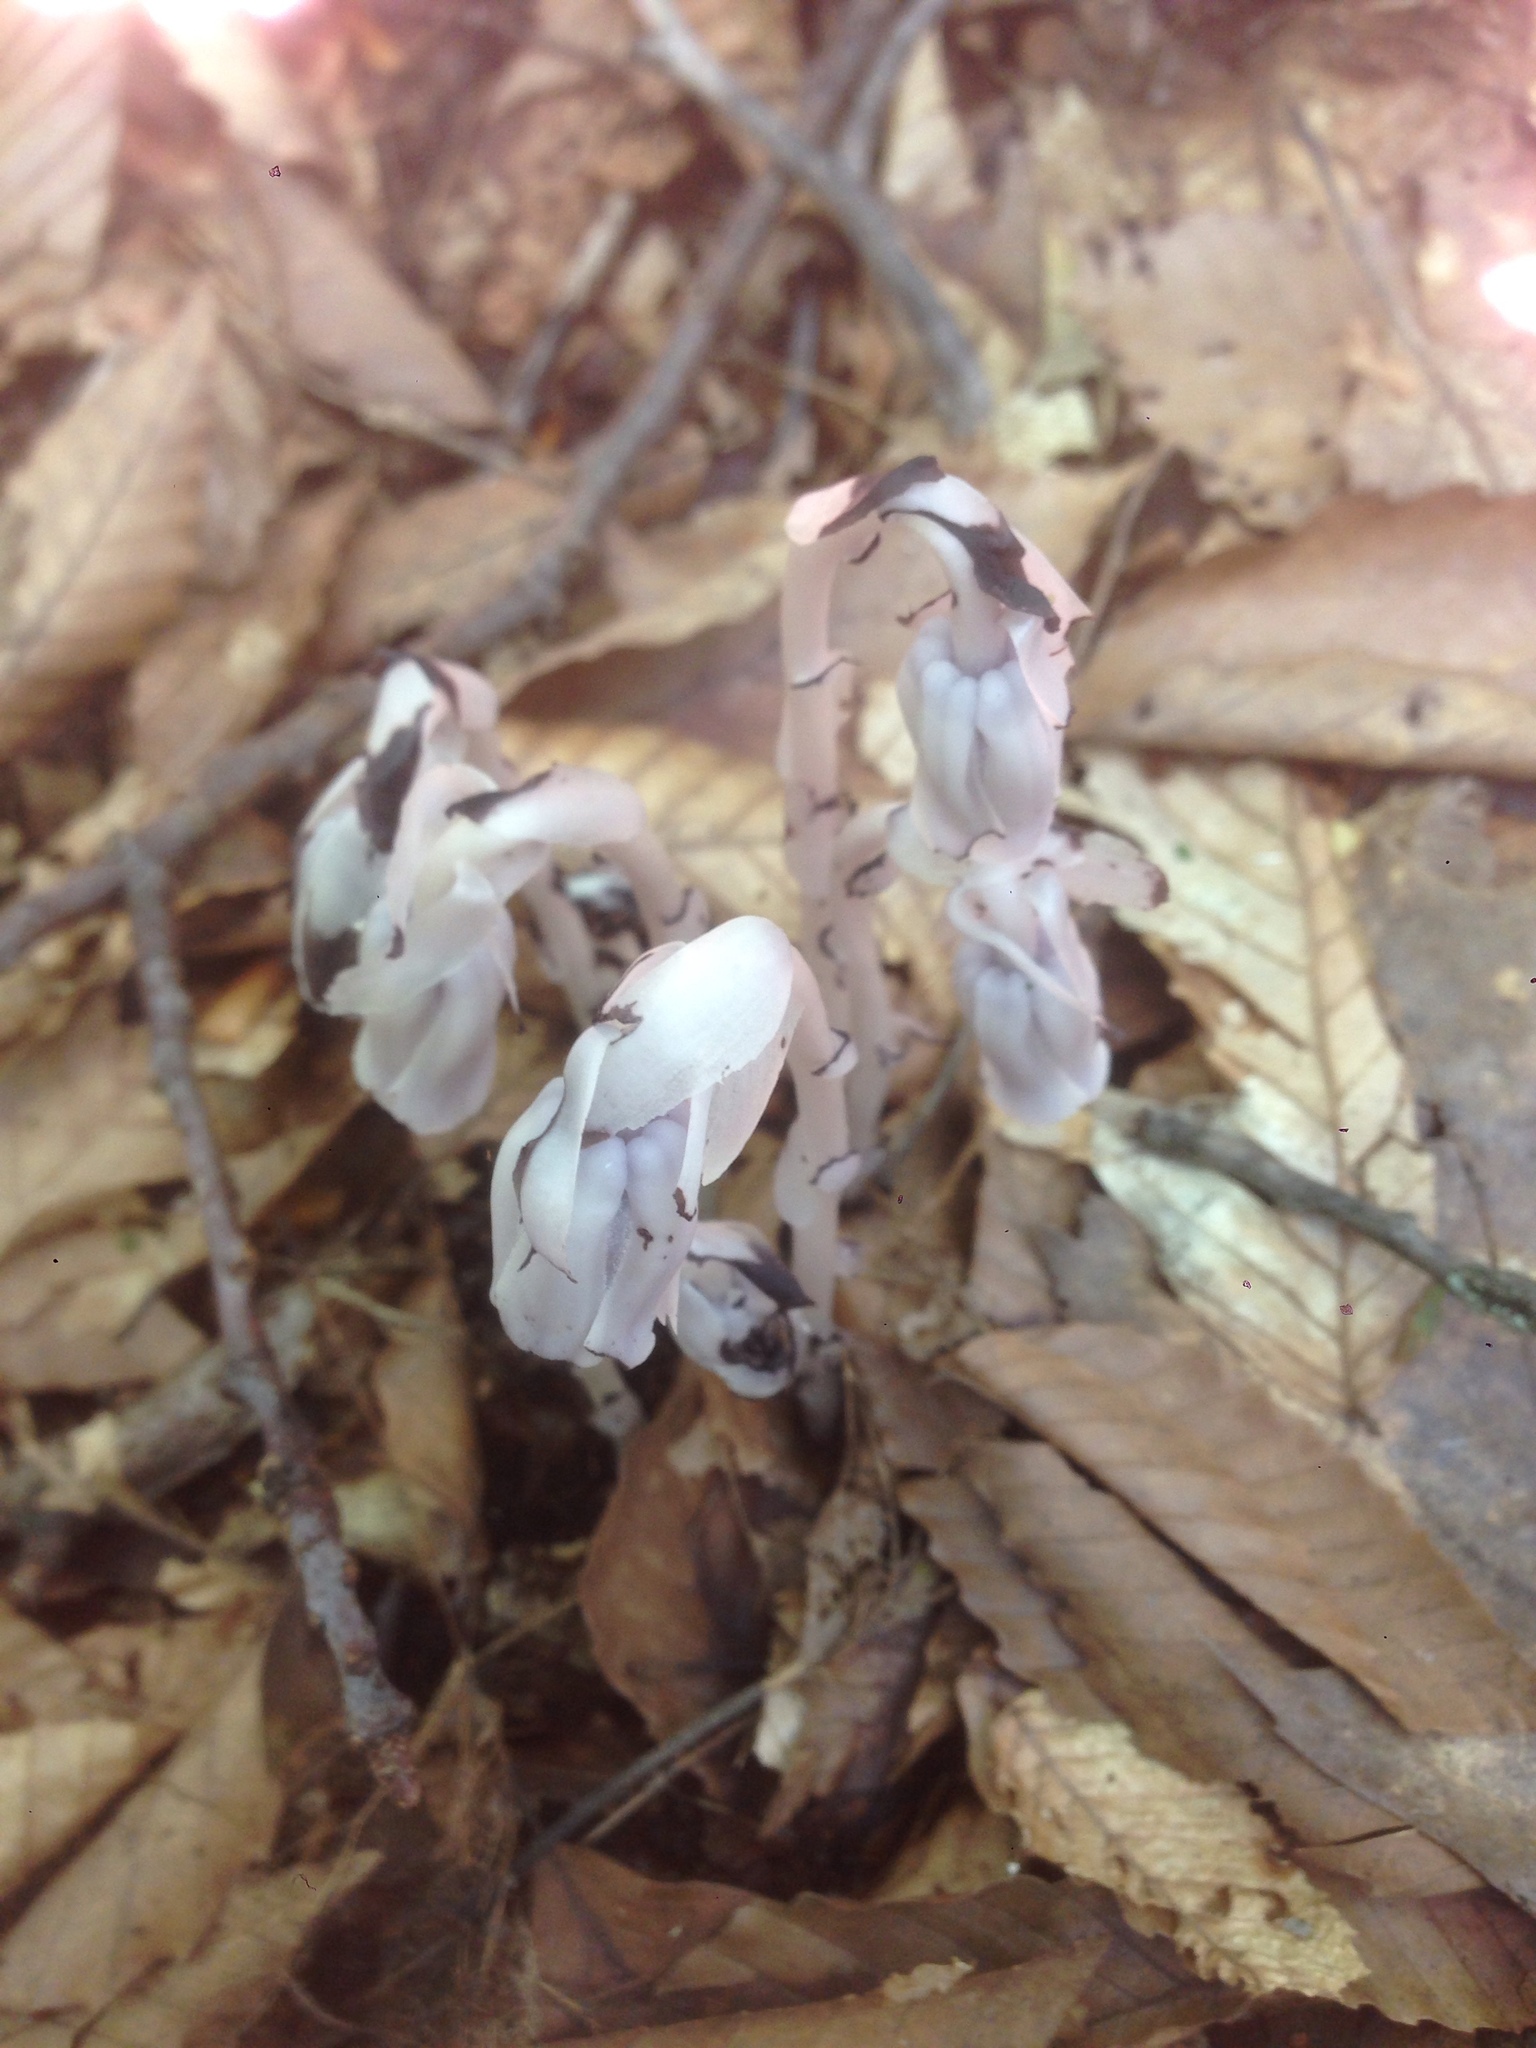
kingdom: Plantae
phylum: Tracheophyta
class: Magnoliopsida
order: Ericales
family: Ericaceae
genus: Monotropa
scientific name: Monotropa uniflora
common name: Convulsion root
